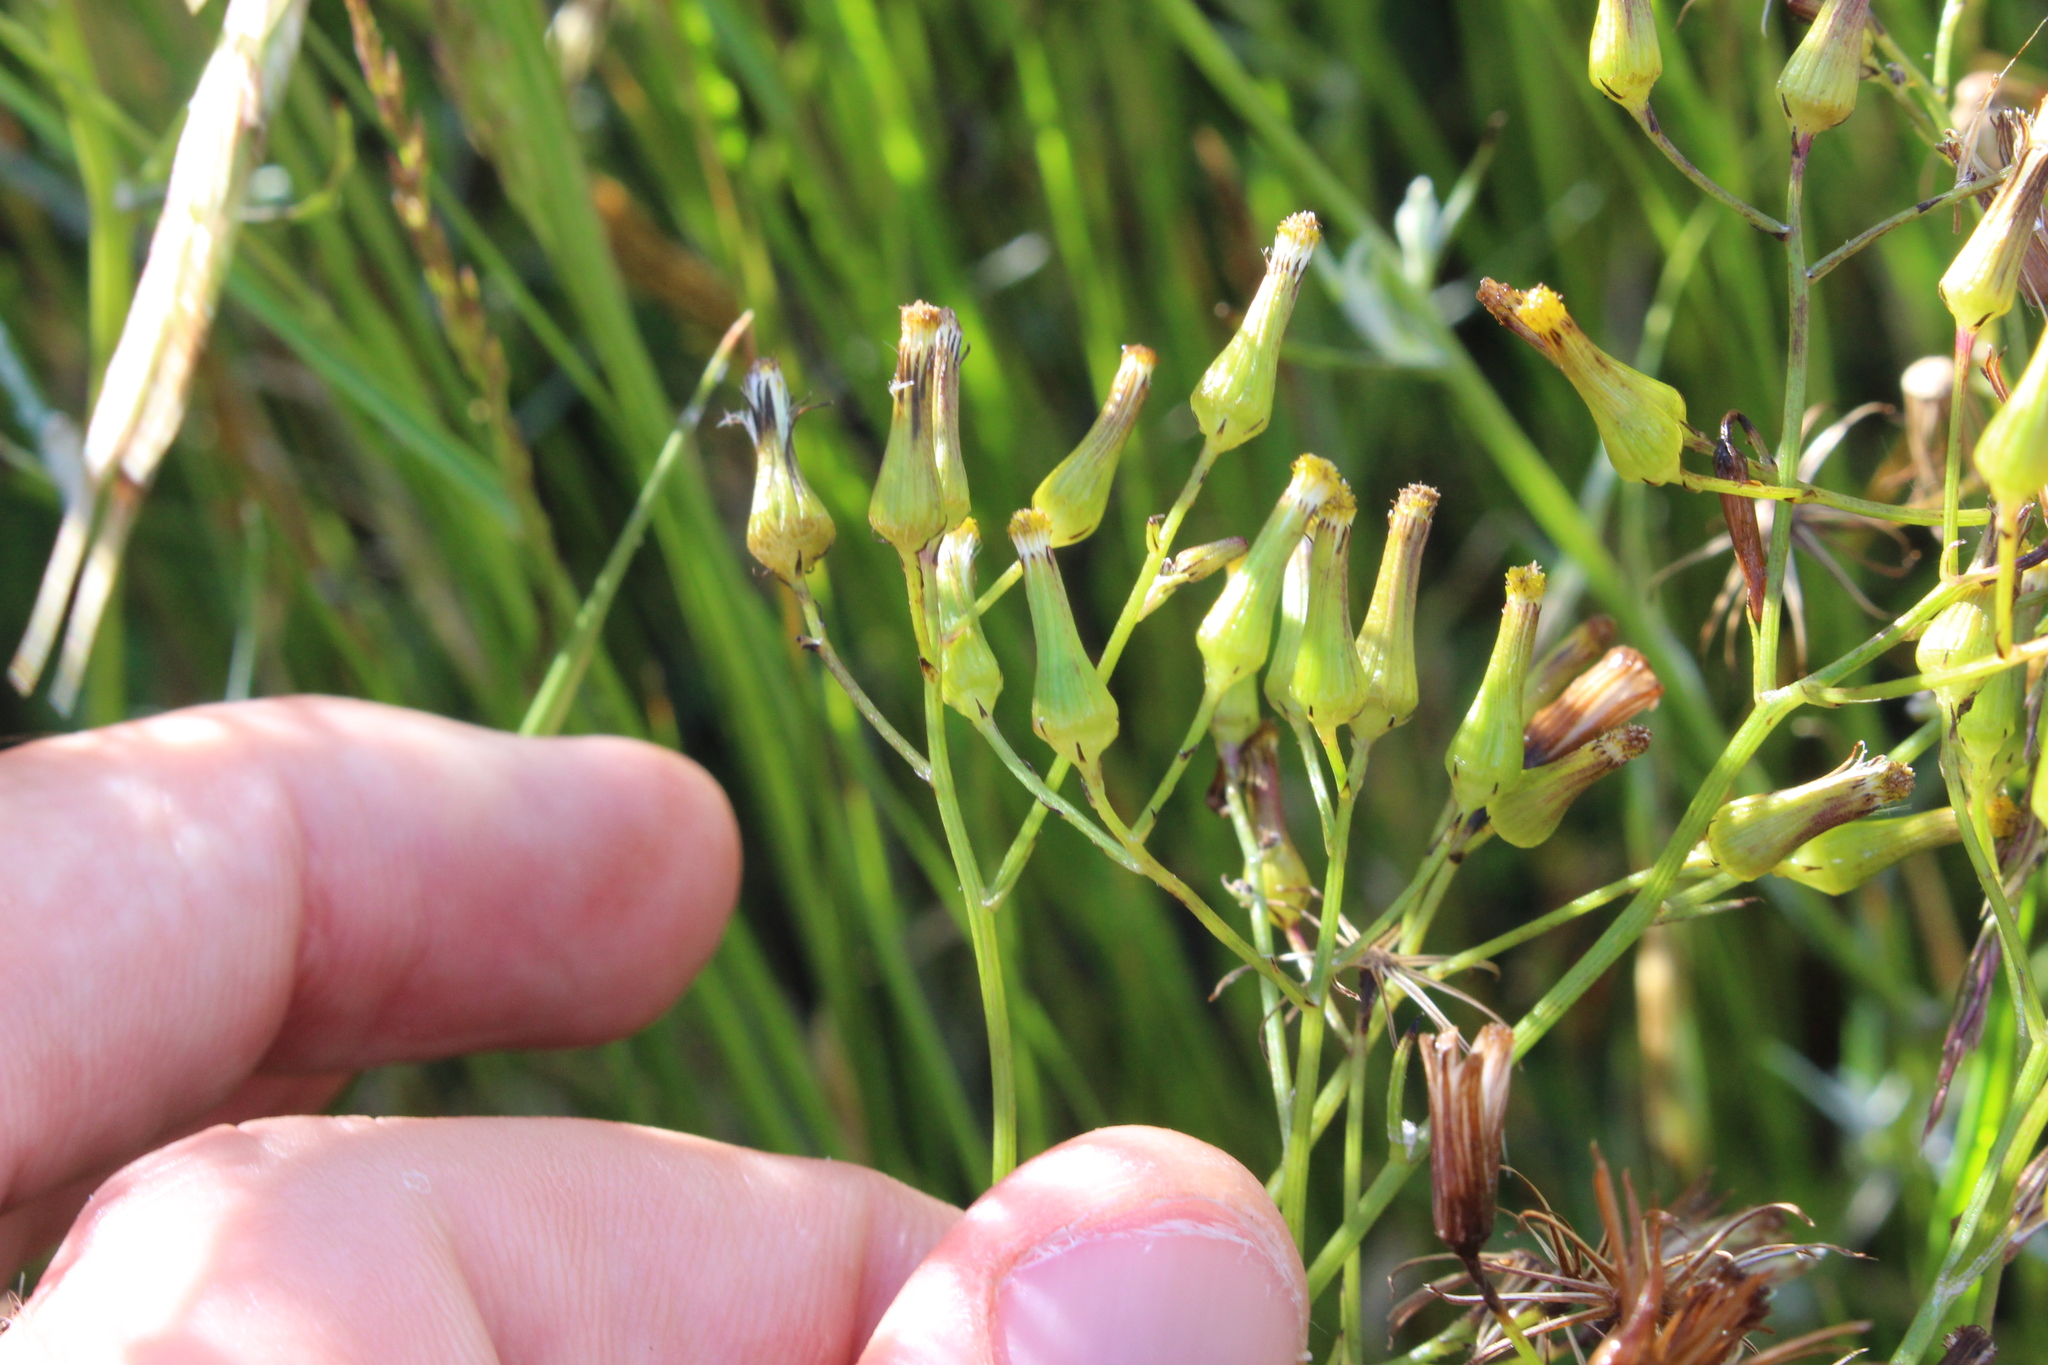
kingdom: Plantae
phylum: Tracheophyta
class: Magnoliopsida
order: Asterales
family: Asteraceae
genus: Senecio
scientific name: Senecio quadridentatus
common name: Cotton fireweed
